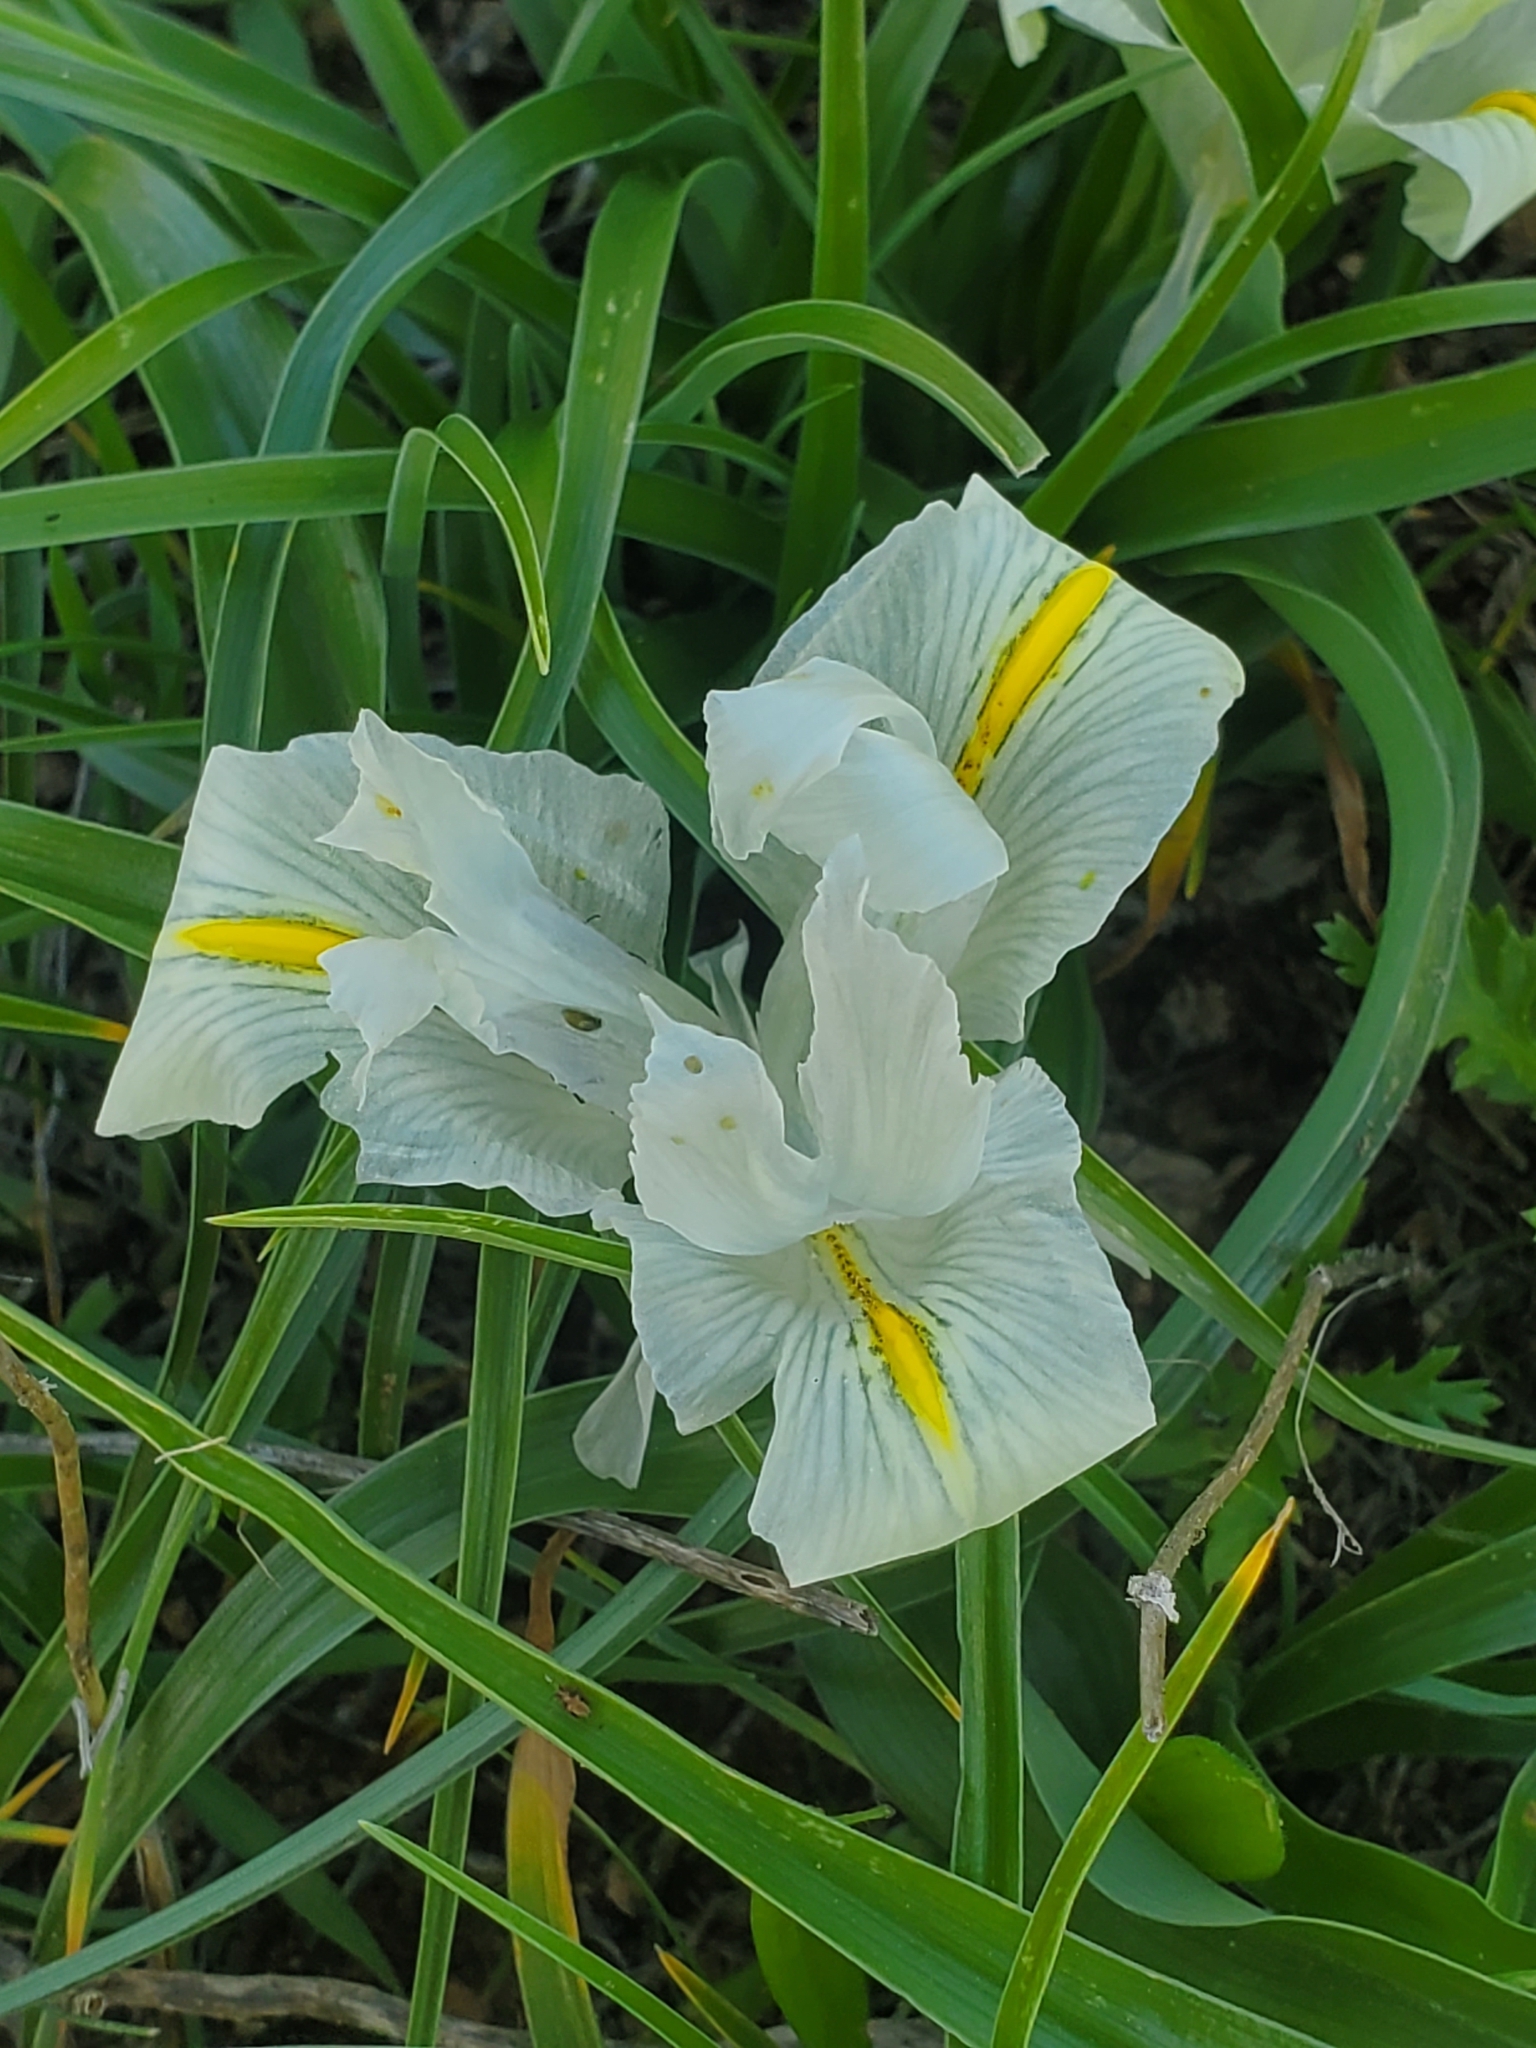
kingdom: Plantae
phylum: Tracheophyta
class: Liliopsida
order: Asparagales
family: Iridaceae
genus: Iris
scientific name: Iris palaestina
